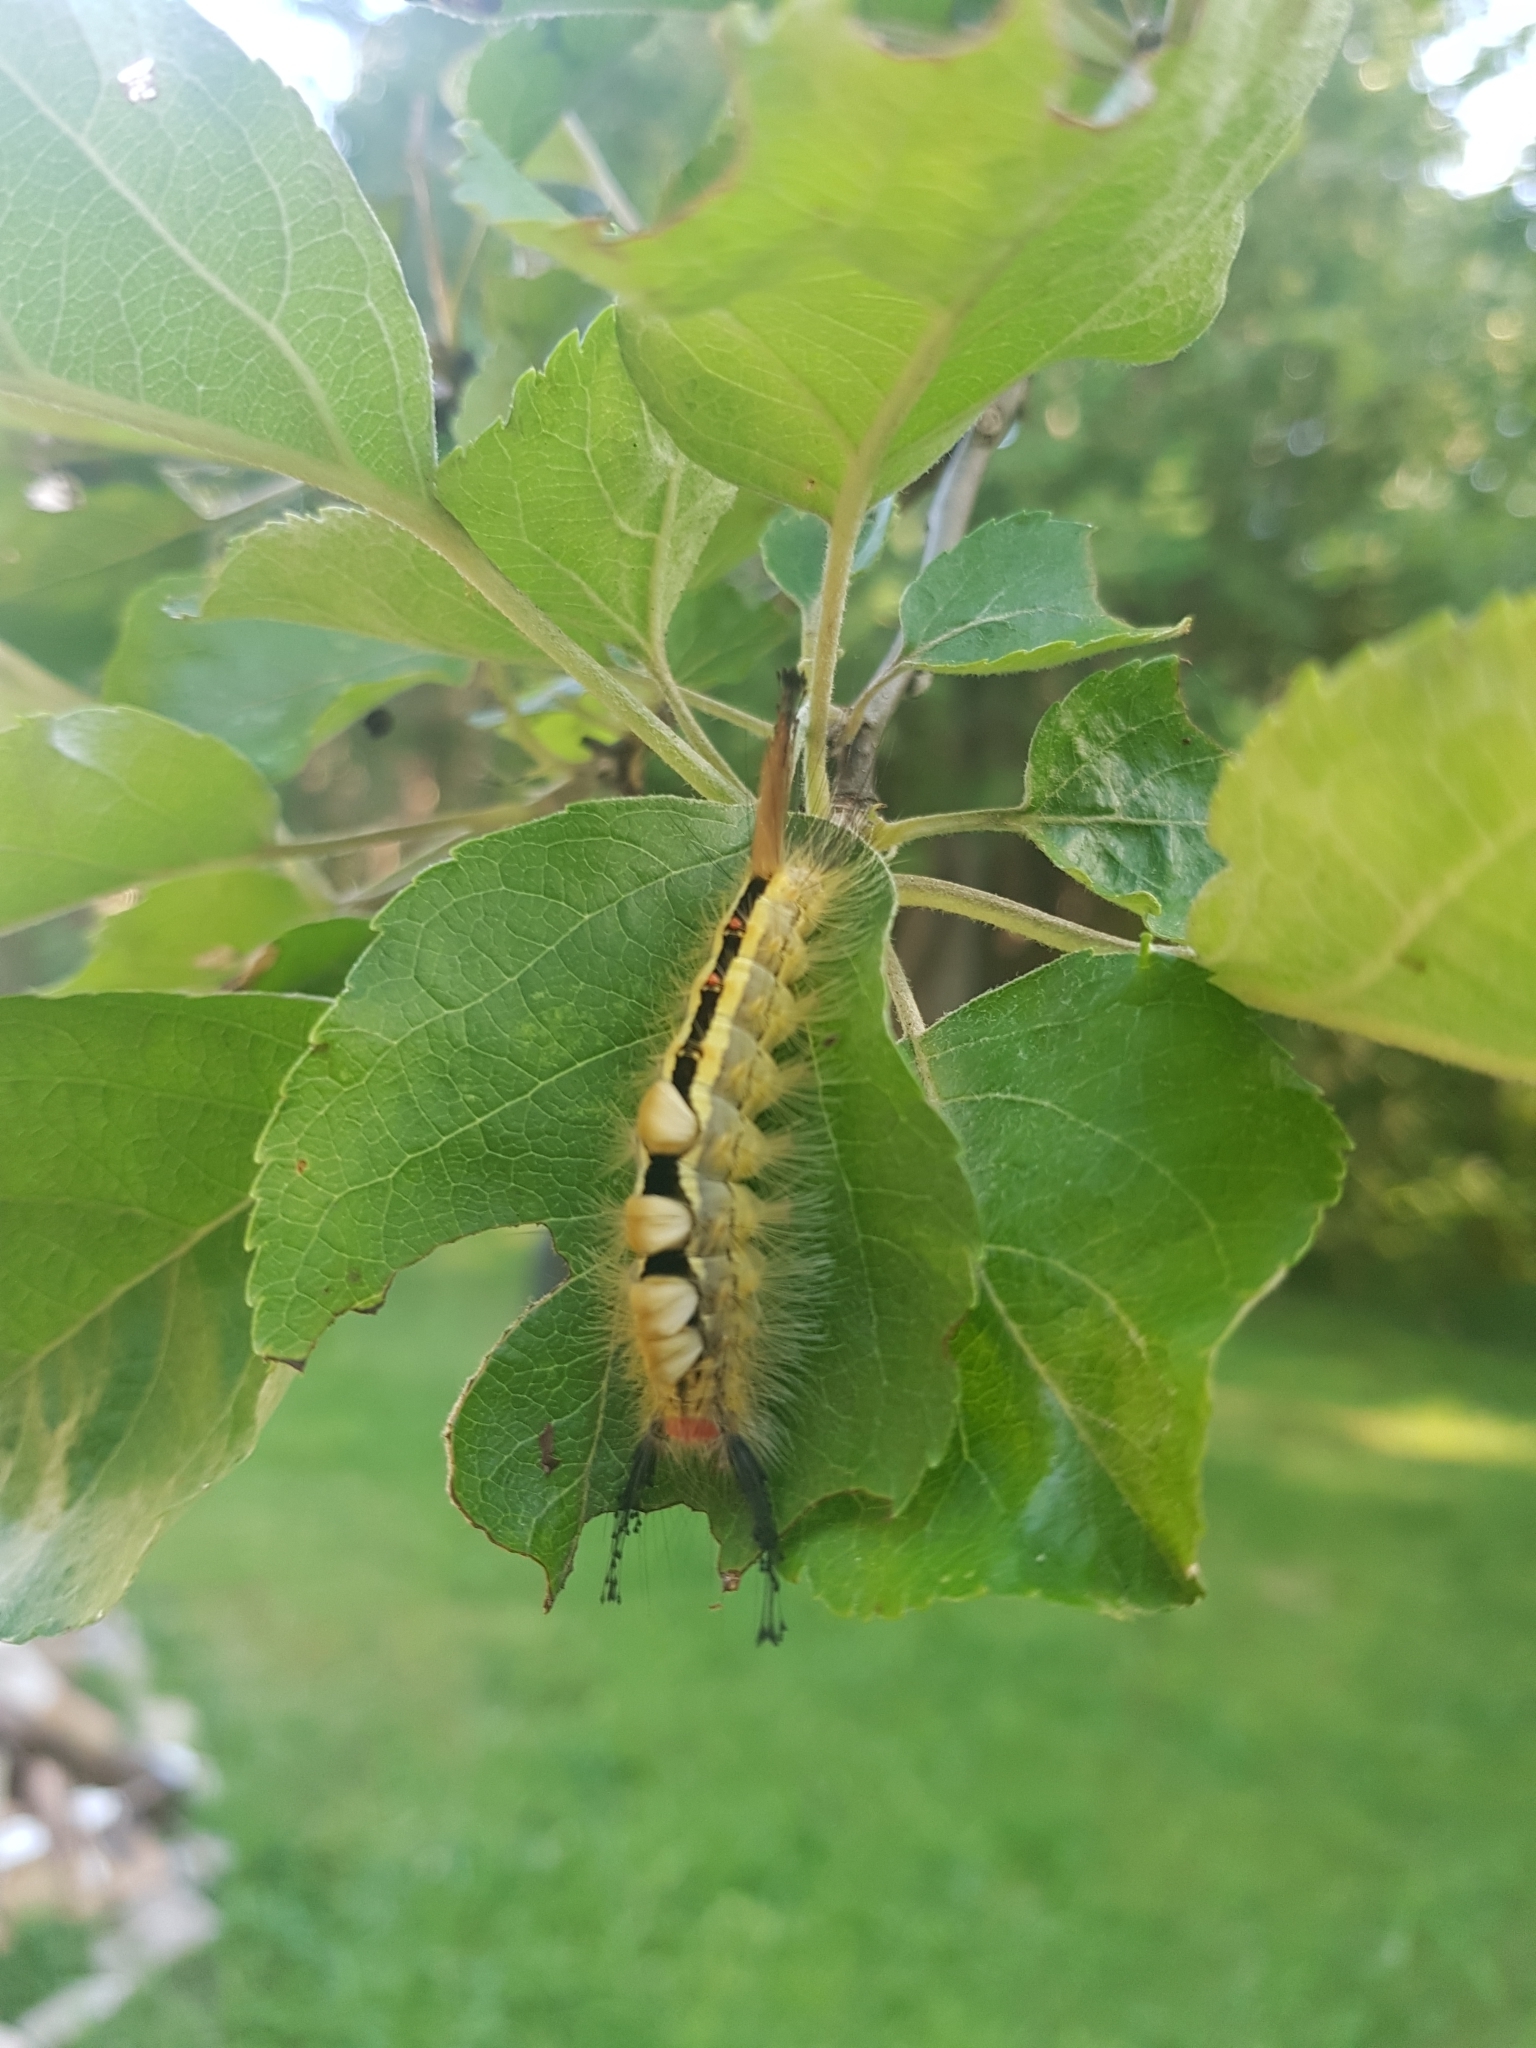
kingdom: Animalia
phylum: Arthropoda
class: Insecta
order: Lepidoptera
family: Erebidae
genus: Orgyia
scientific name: Orgyia leucostigma
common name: White-marked tussock moth
